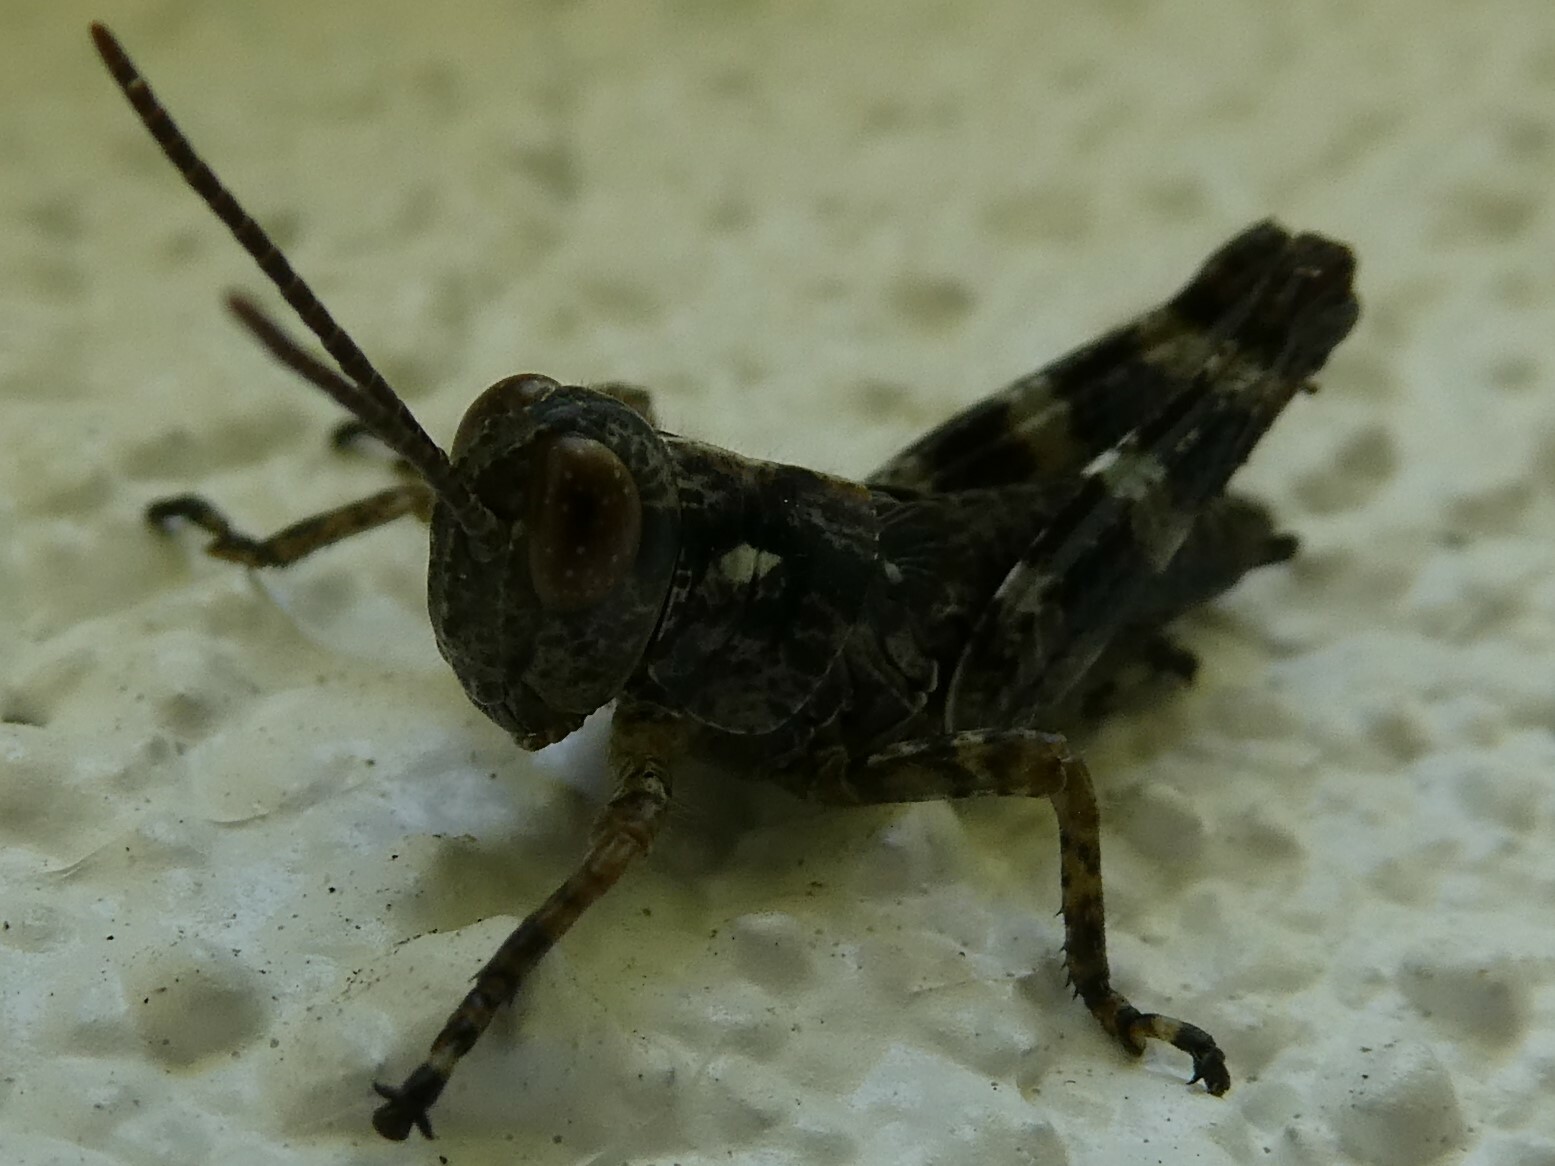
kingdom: Animalia
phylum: Arthropoda
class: Insecta
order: Orthoptera
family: Acrididae
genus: Melanoplus
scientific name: Melanoplus punctulatus
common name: Pine-tree spur-throat grasshopper
